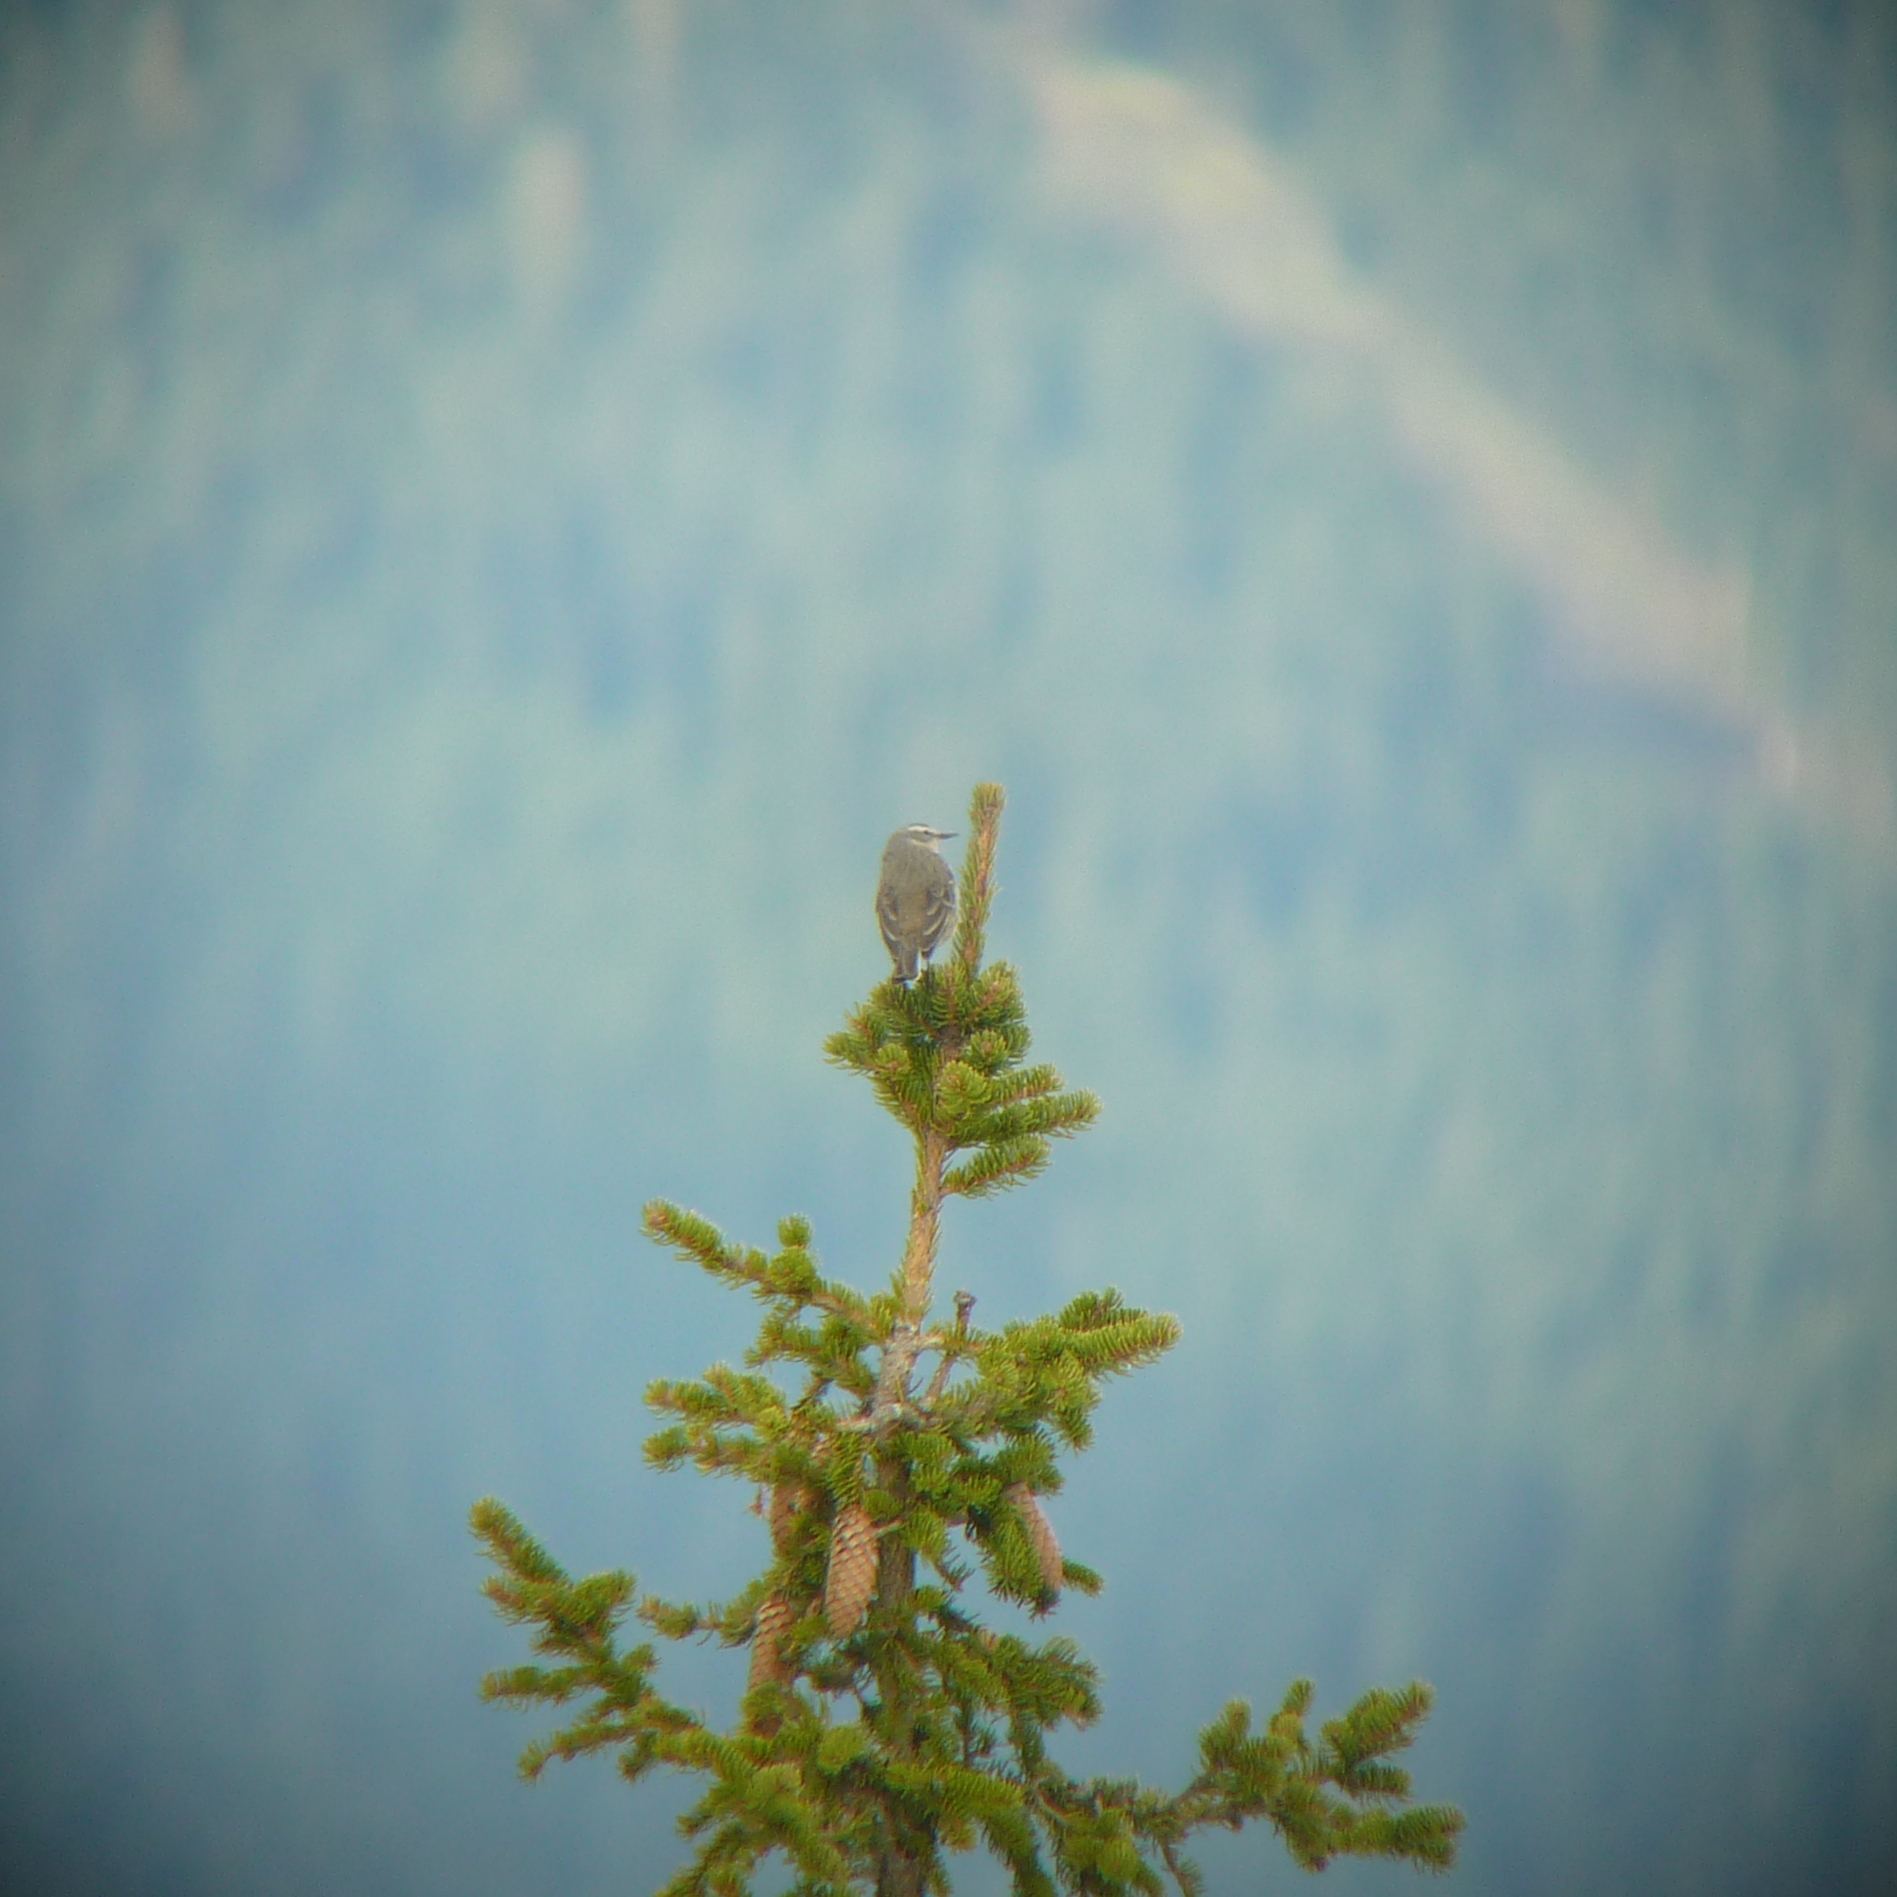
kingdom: Animalia
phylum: Chordata
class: Aves
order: Passeriformes
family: Motacillidae
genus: Anthus
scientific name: Anthus spinoletta
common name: Water pipit
